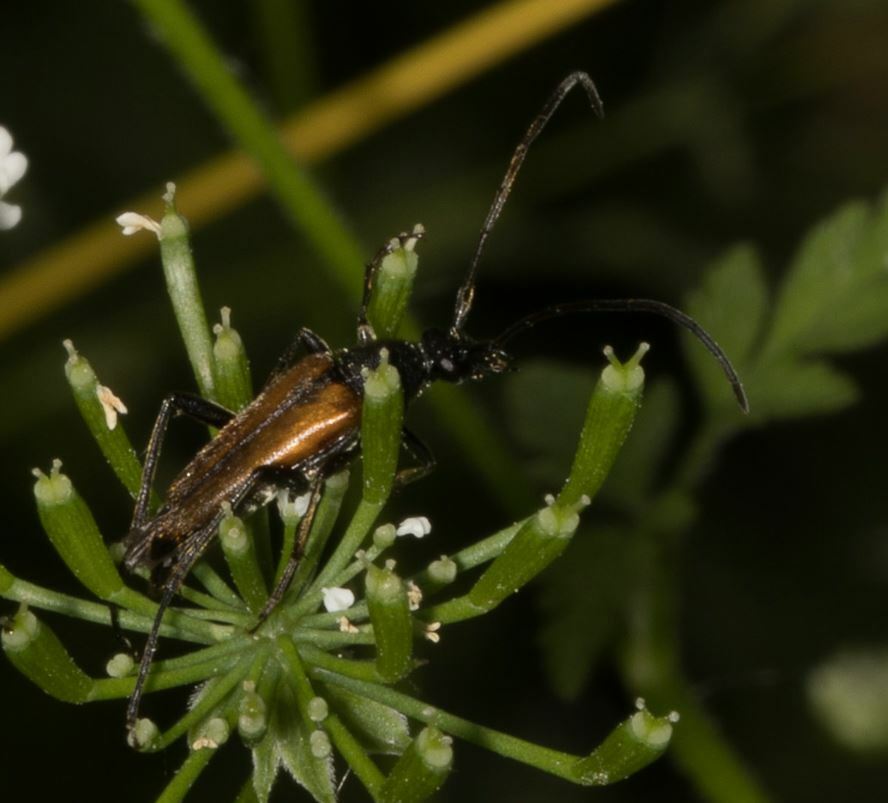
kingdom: Animalia
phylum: Arthropoda
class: Insecta
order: Coleoptera
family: Cerambycidae
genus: Stenurella
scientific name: Stenurella melanura
